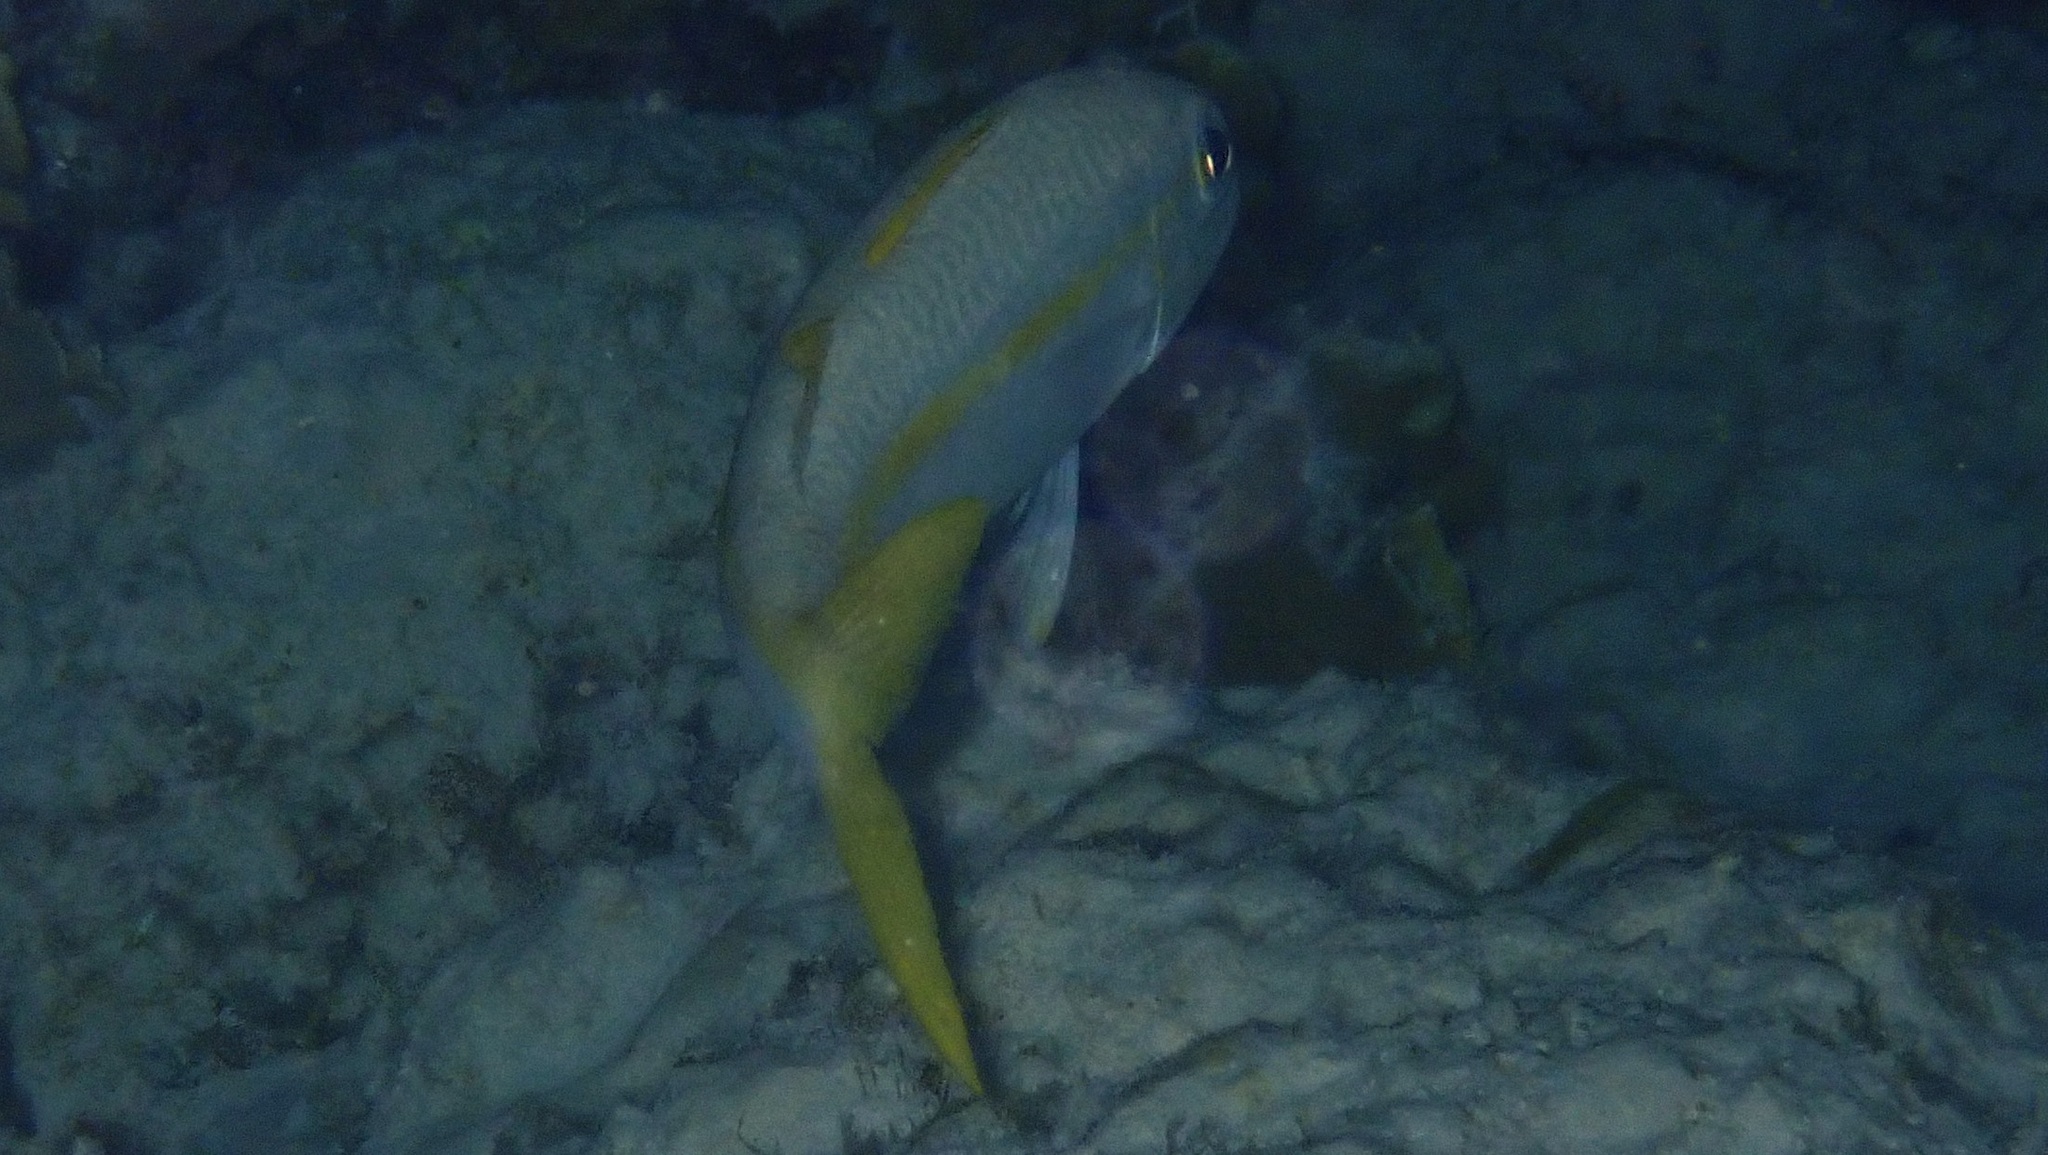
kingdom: Animalia
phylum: Chordata
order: Perciformes
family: Lutjanidae
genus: Ocyurus
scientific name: Ocyurus chrysurus
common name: Yellowtail snapper
